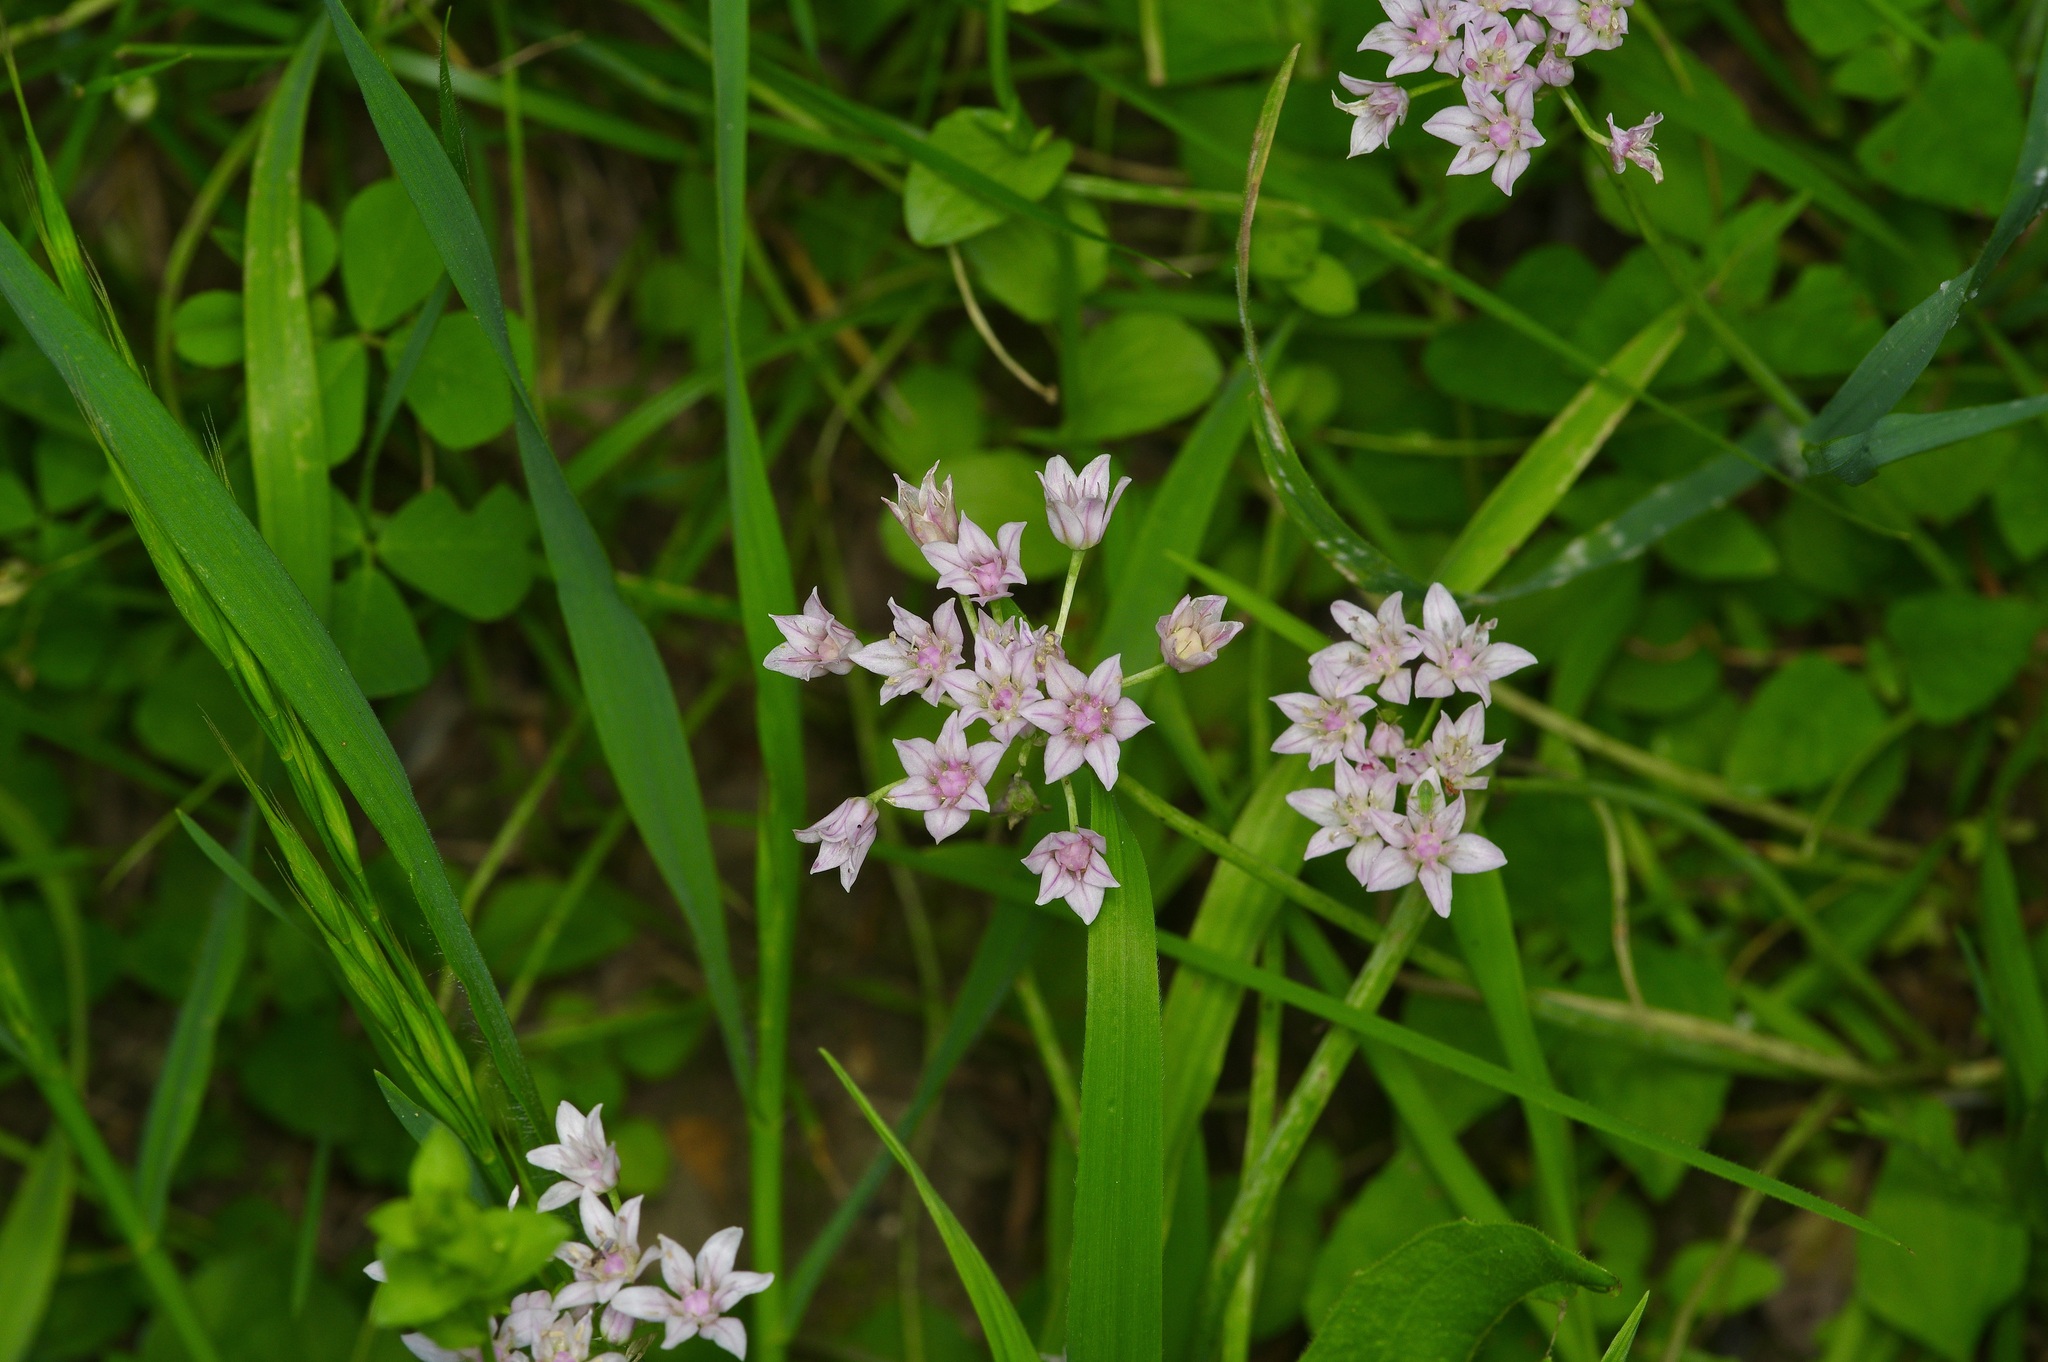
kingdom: Plantae
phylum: Tracheophyta
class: Liliopsida
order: Asparagales
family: Amaryllidaceae
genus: Allium
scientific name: Allium drummondii
